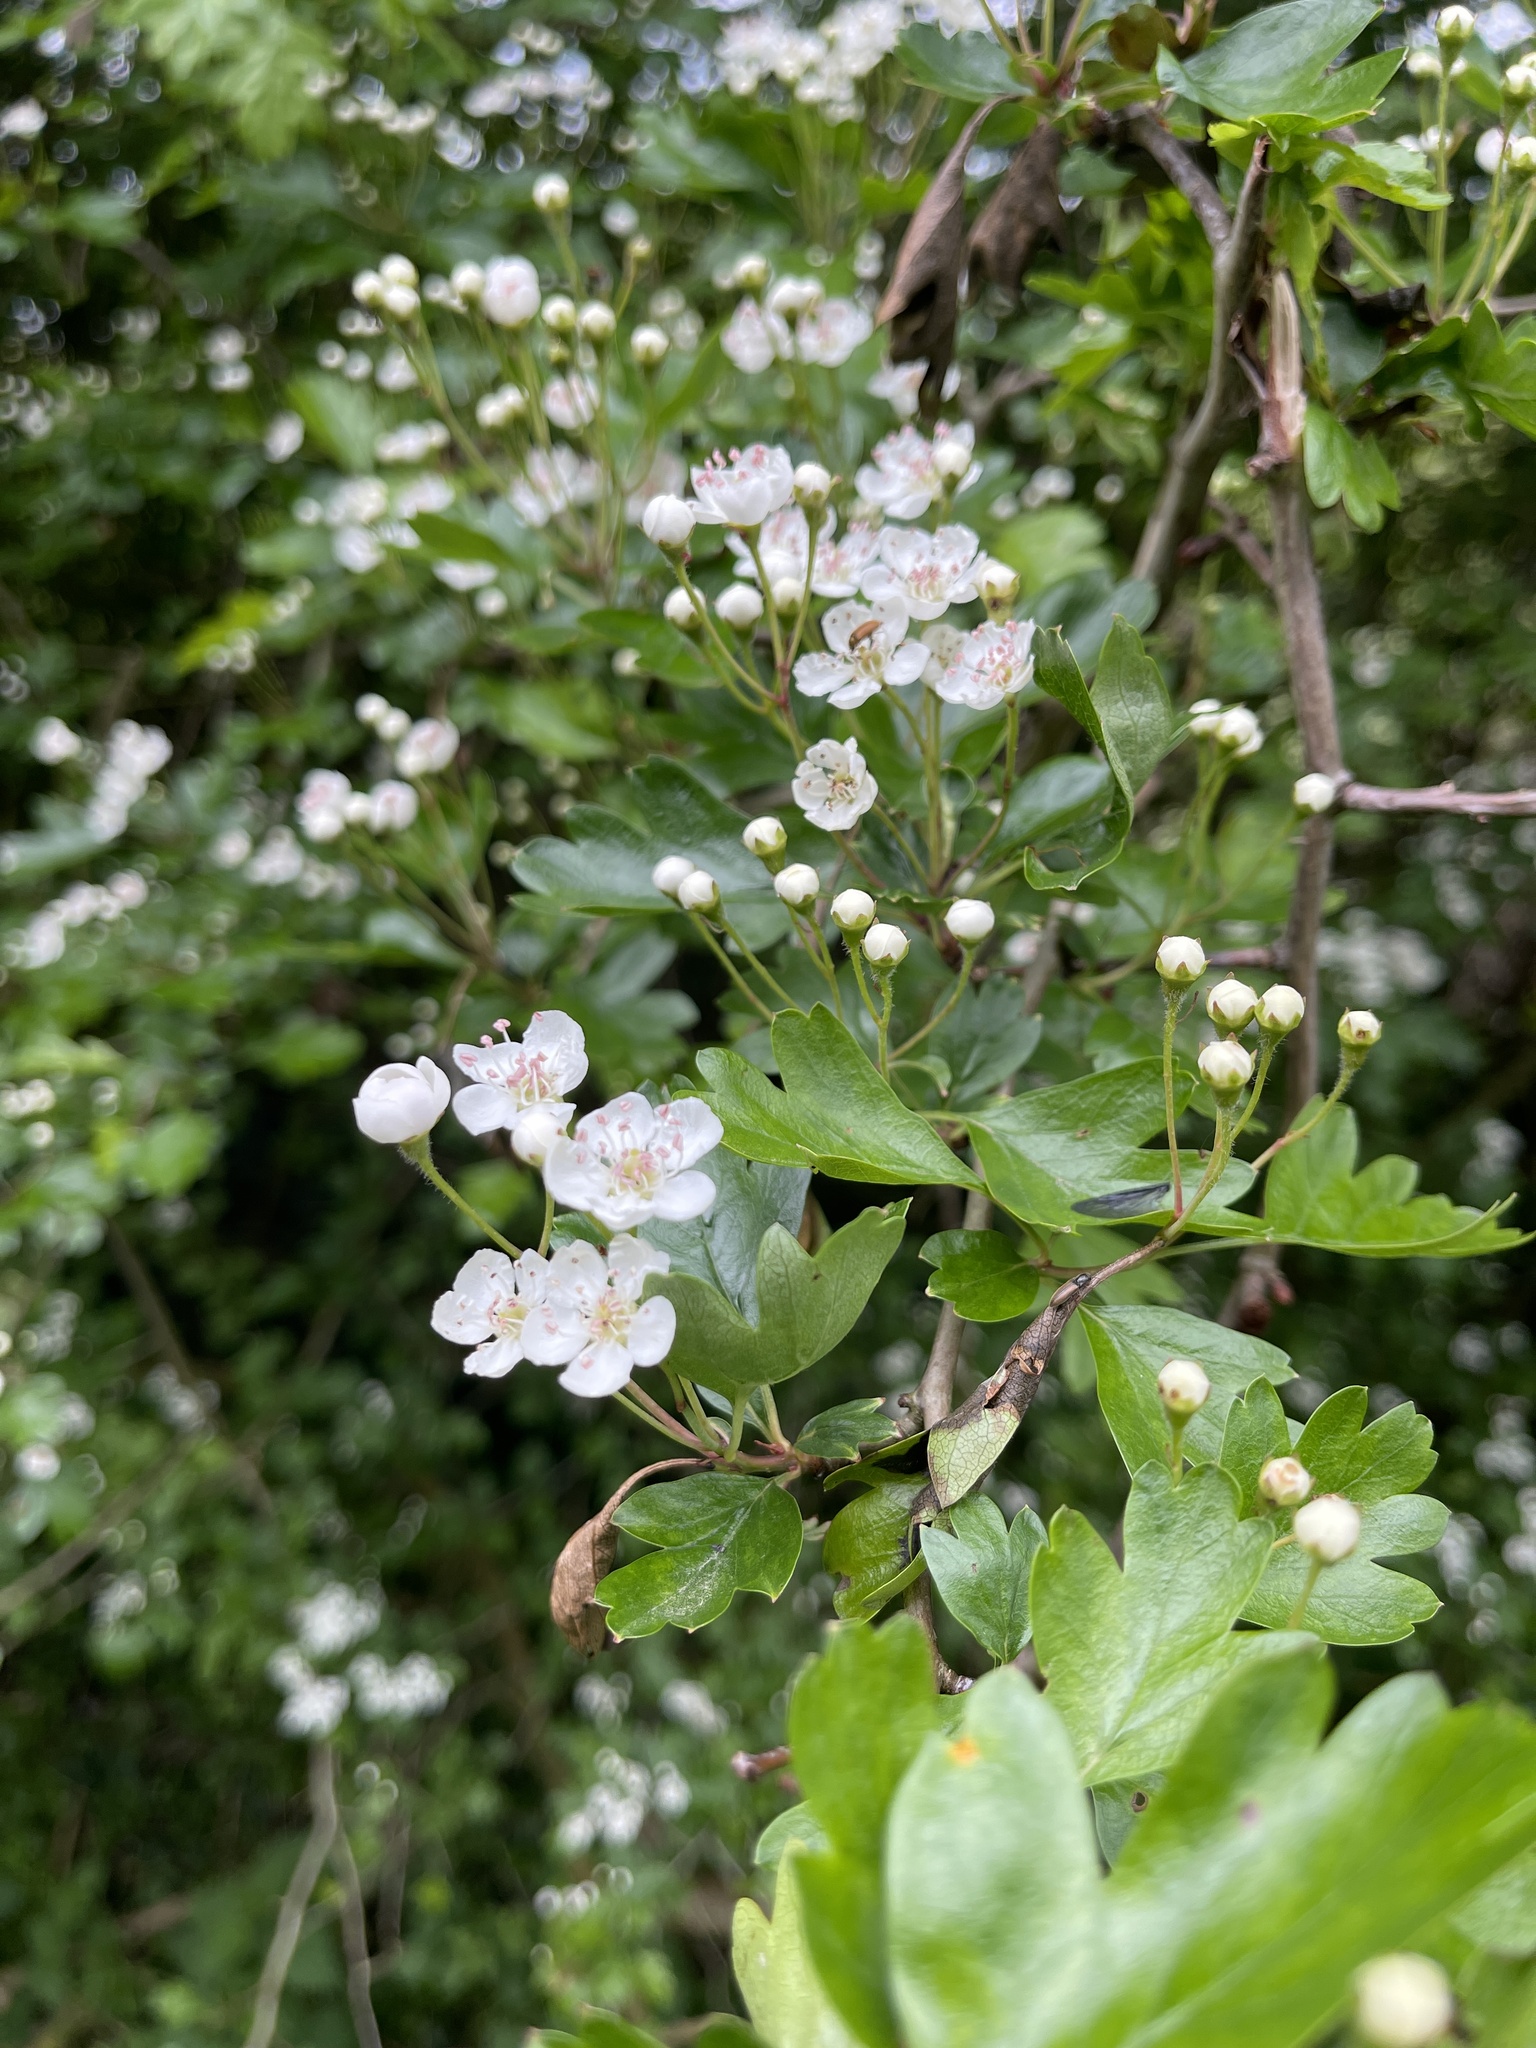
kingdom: Plantae
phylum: Tracheophyta
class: Magnoliopsida
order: Rosales
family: Rosaceae
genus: Crataegus
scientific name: Crataegus monogyna
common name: Hawthorn
